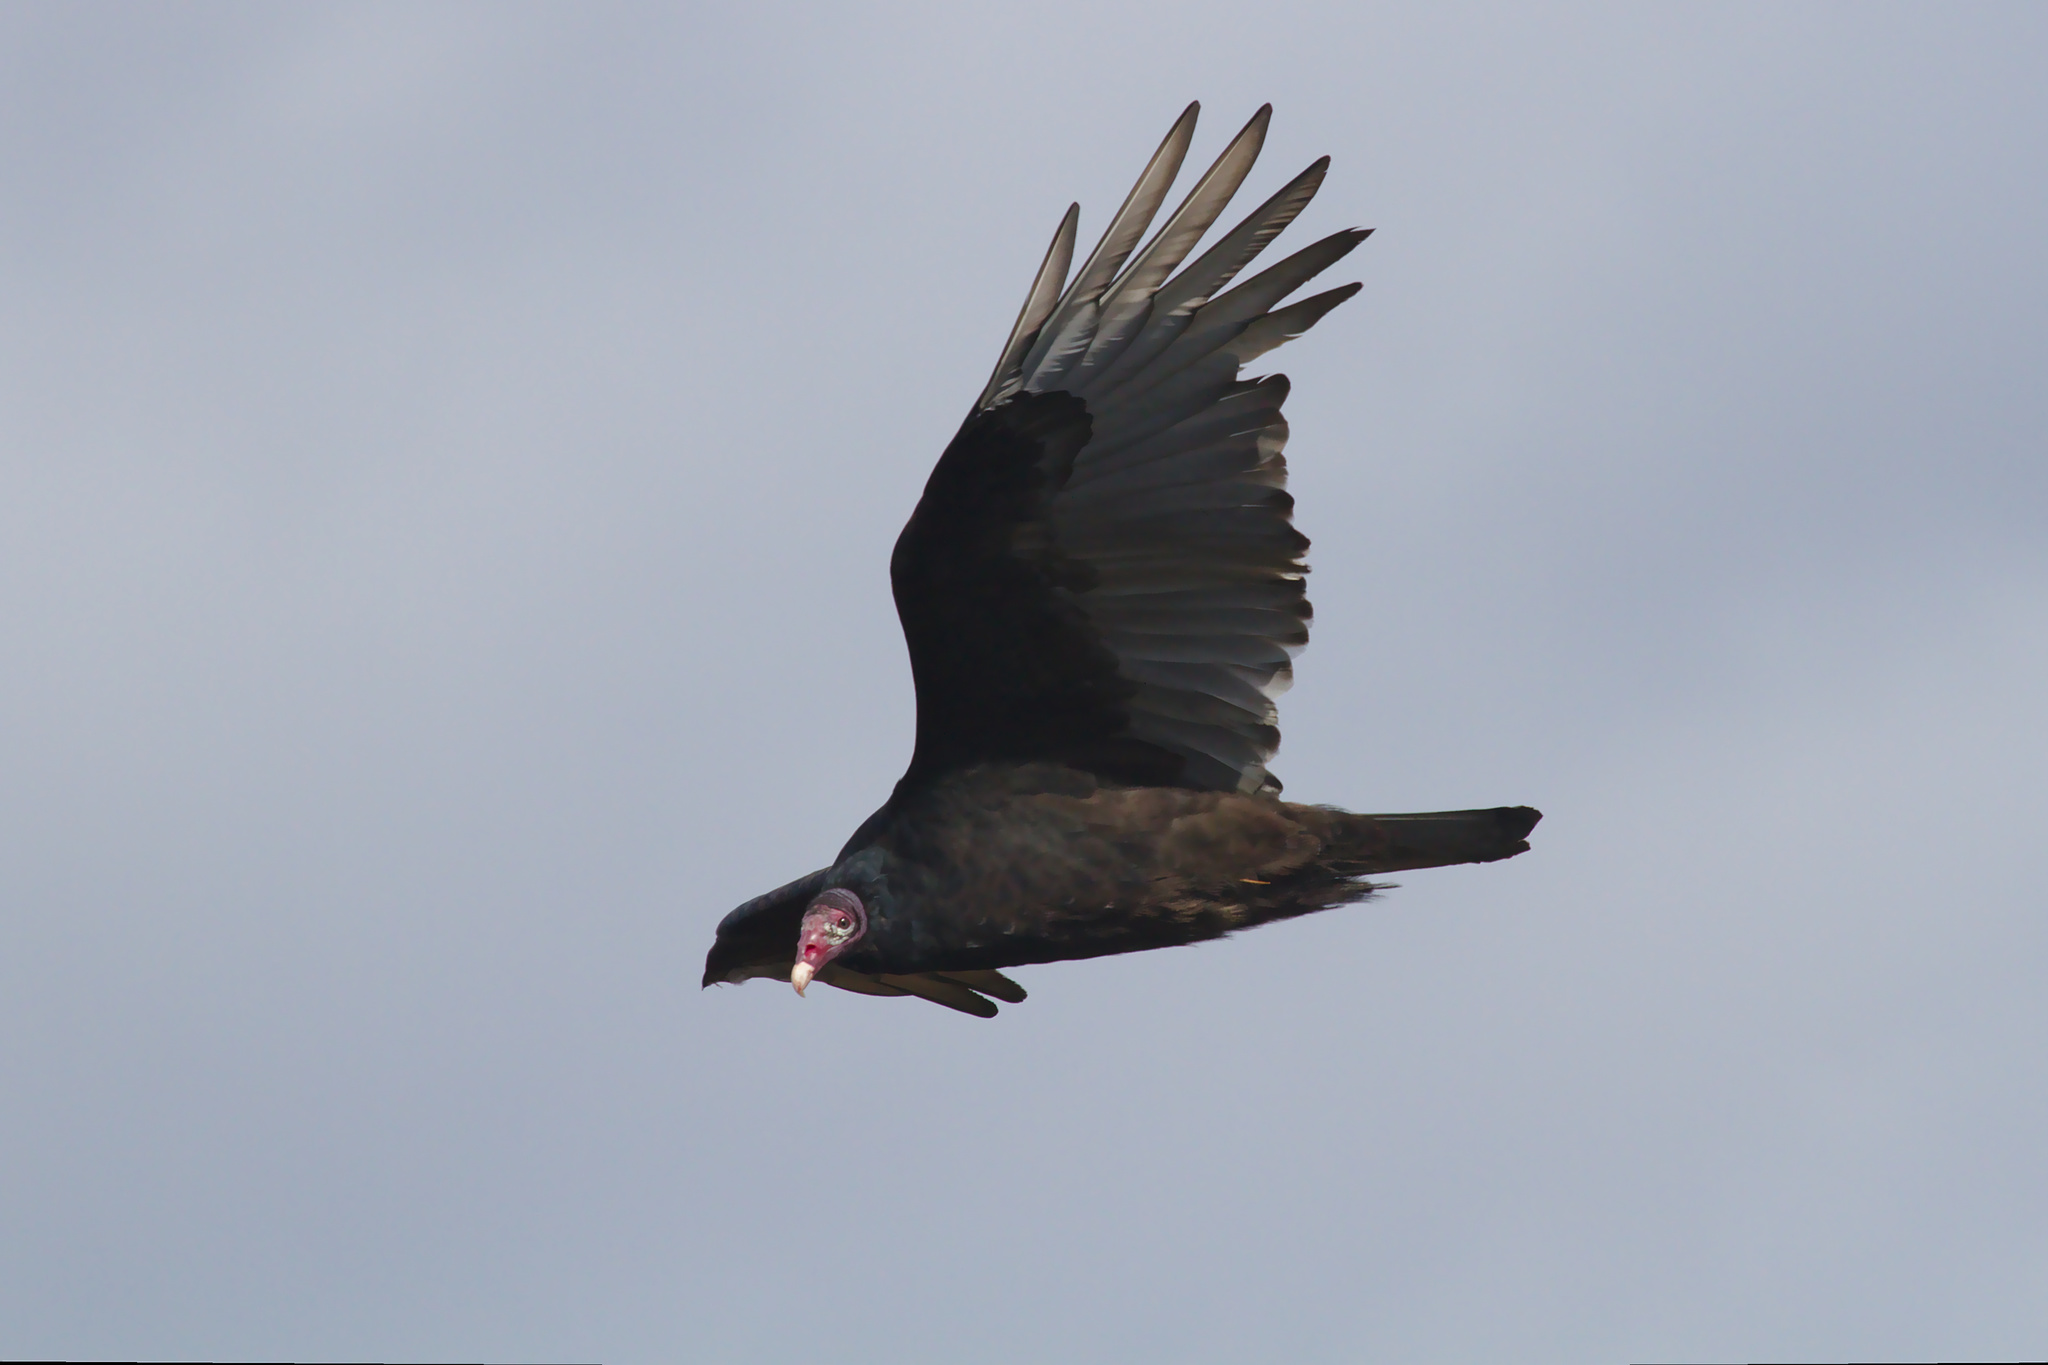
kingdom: Animalia
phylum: Chordata
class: Aves
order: Accipitriformes
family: Cathartidae
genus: Cathartes
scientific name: Cathartes aura
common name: Turkey vulture
